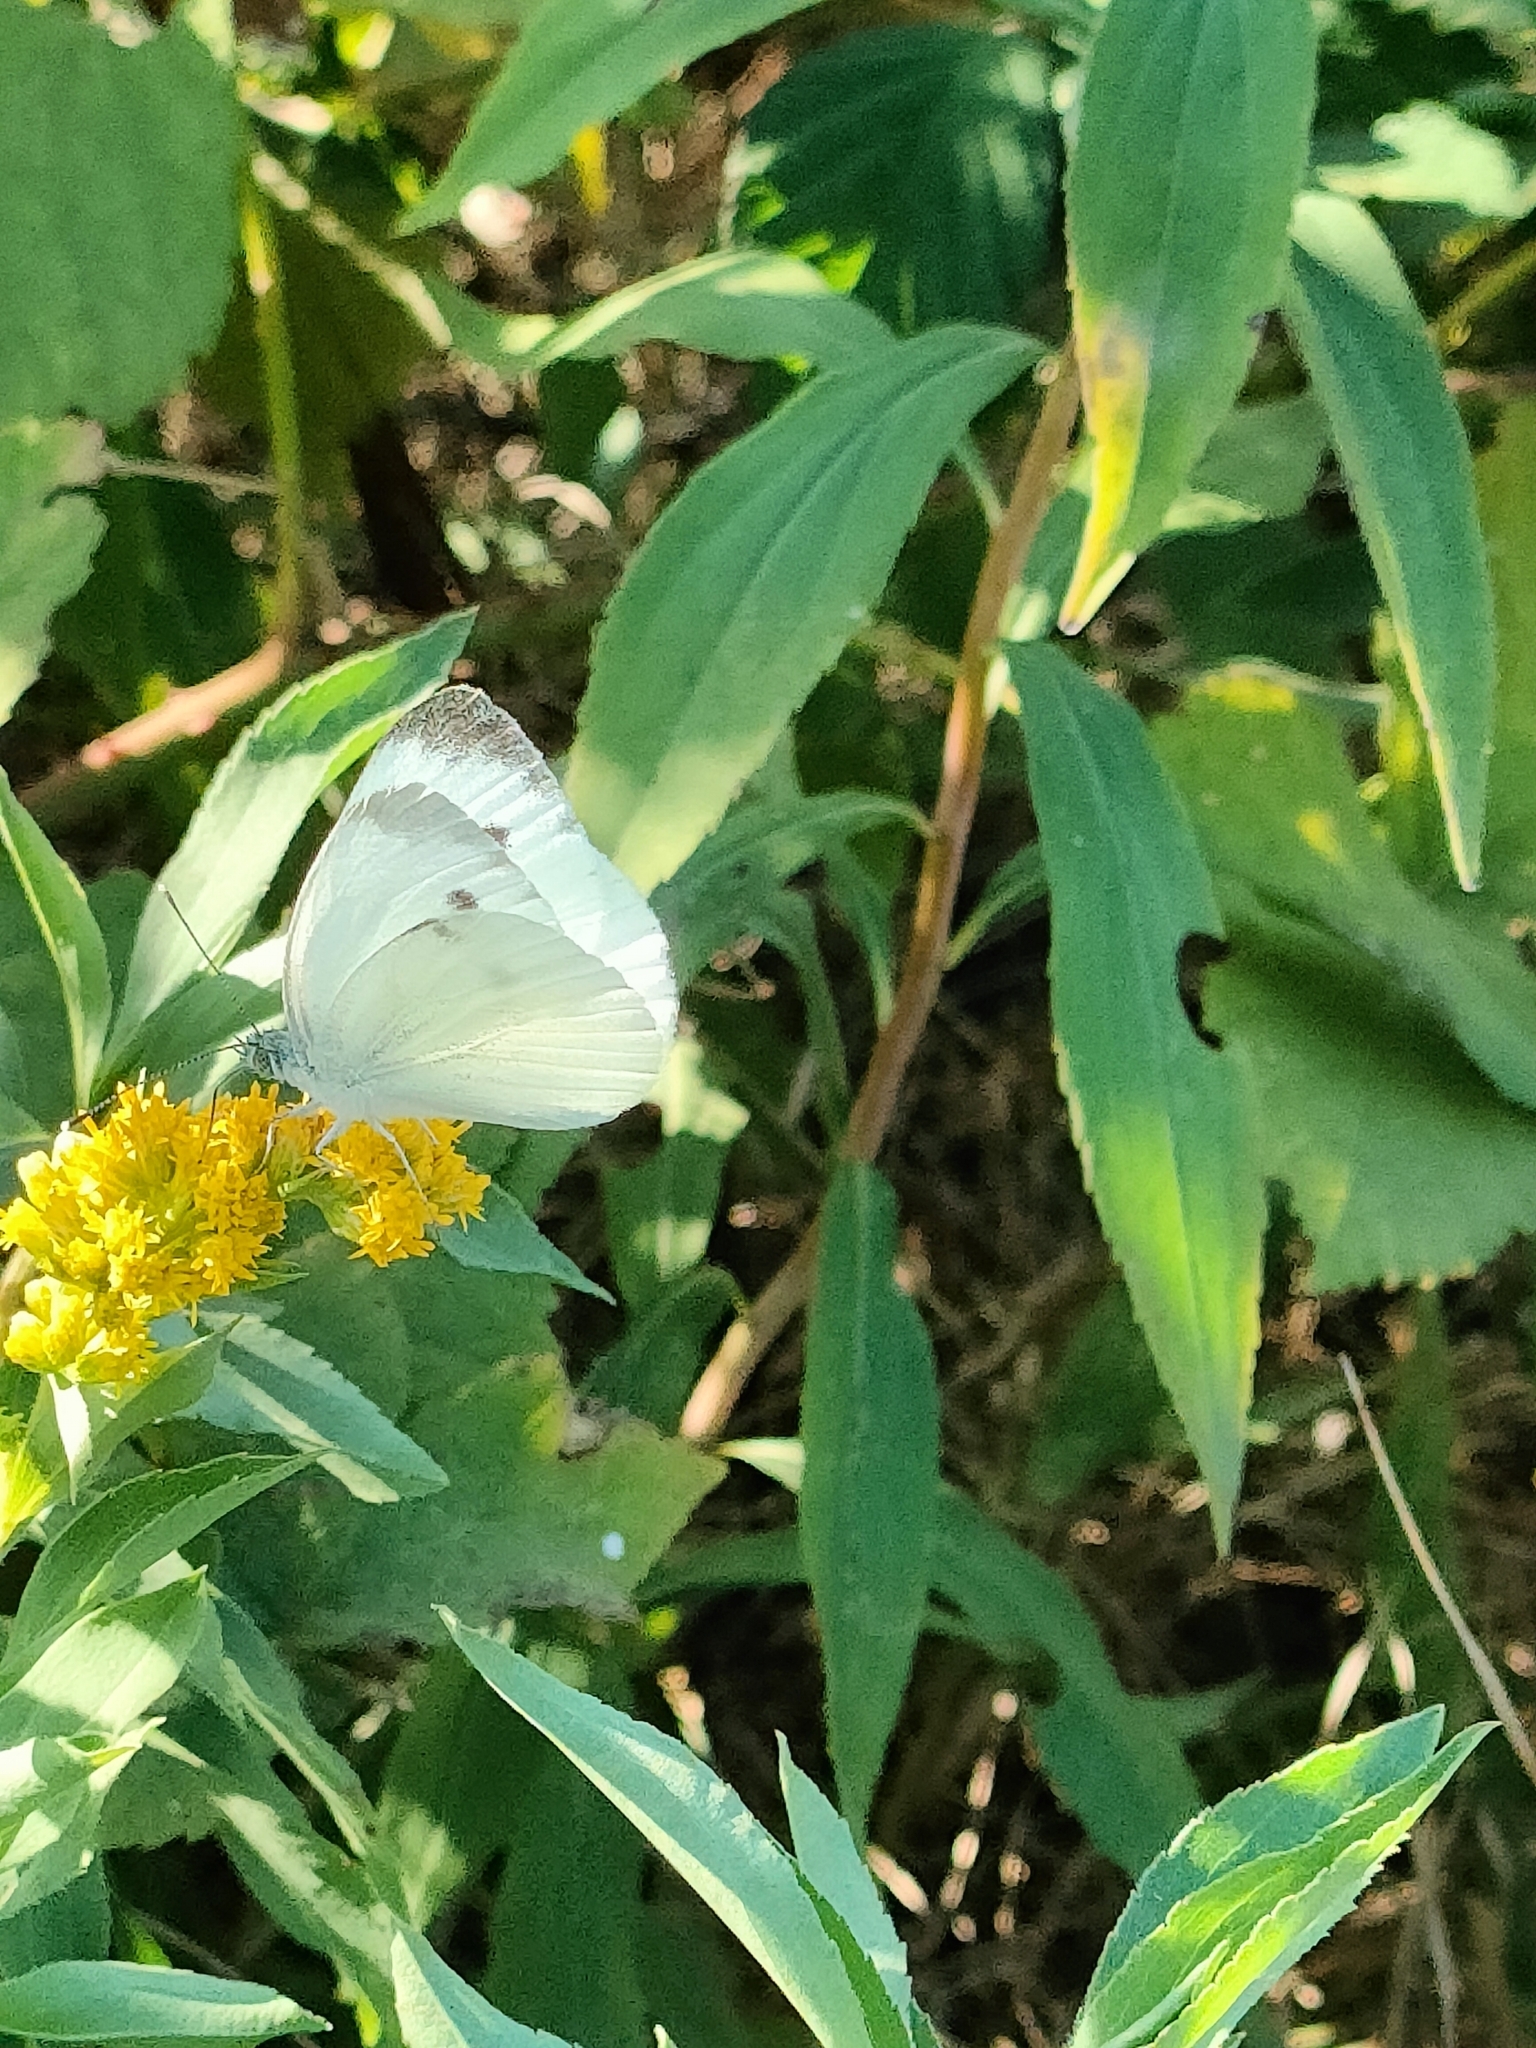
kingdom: Animalia
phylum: Arthropoda
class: Insecta
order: Lepidoptera
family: Pieridae
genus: Pieris
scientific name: Pieris napi
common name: Green-veined white
